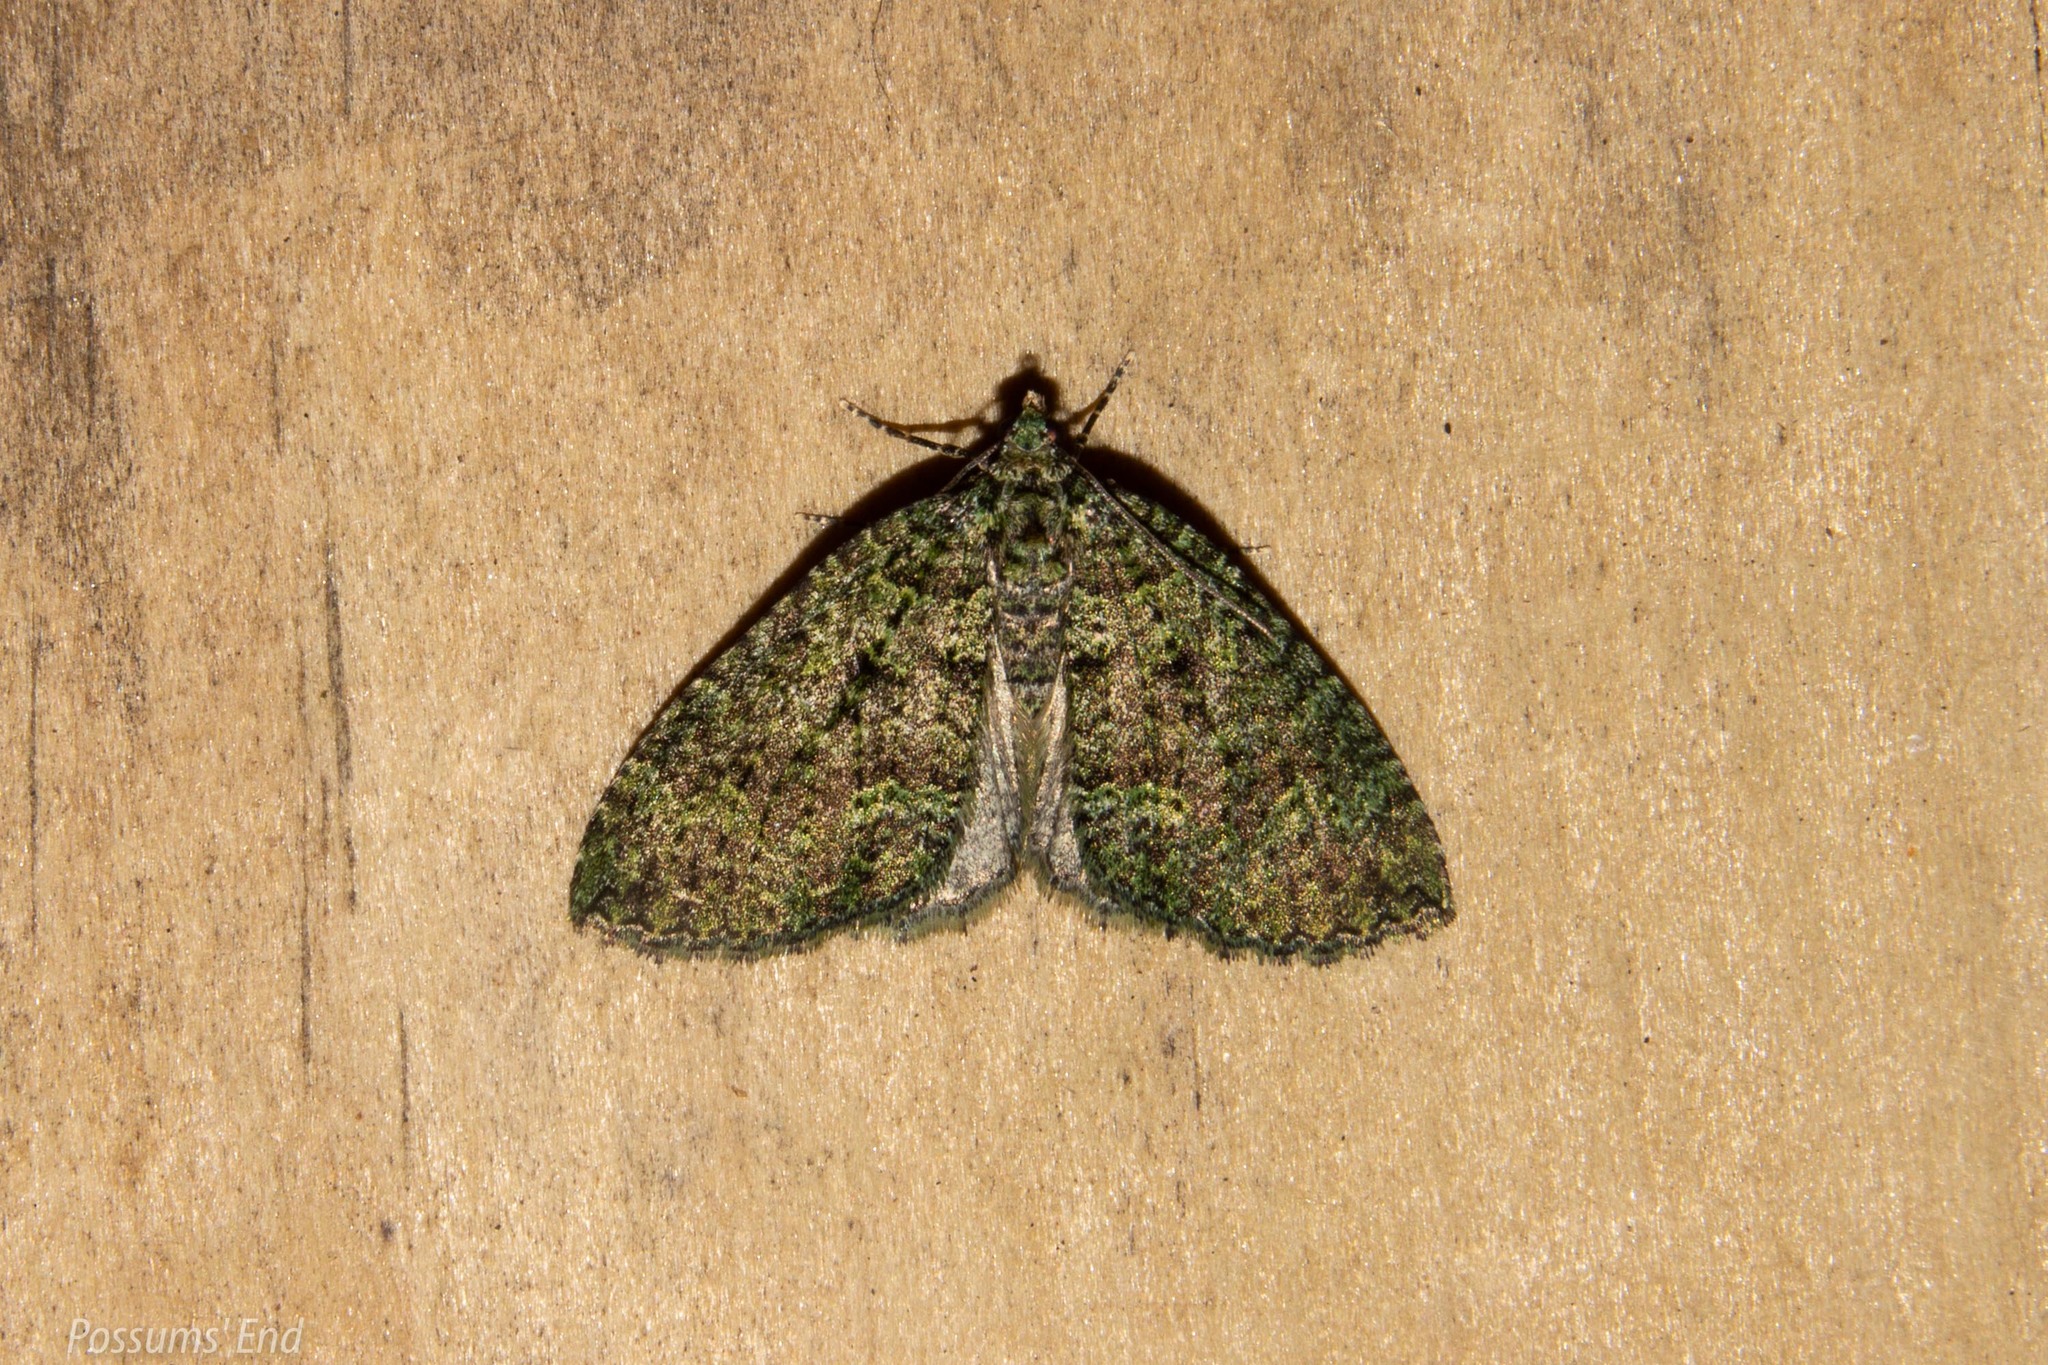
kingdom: Animalia
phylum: Arthropoda
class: Insecta
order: Lepidoptera
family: Geometridae
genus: Austrocidaria
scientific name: Austrocidaria callichlora
